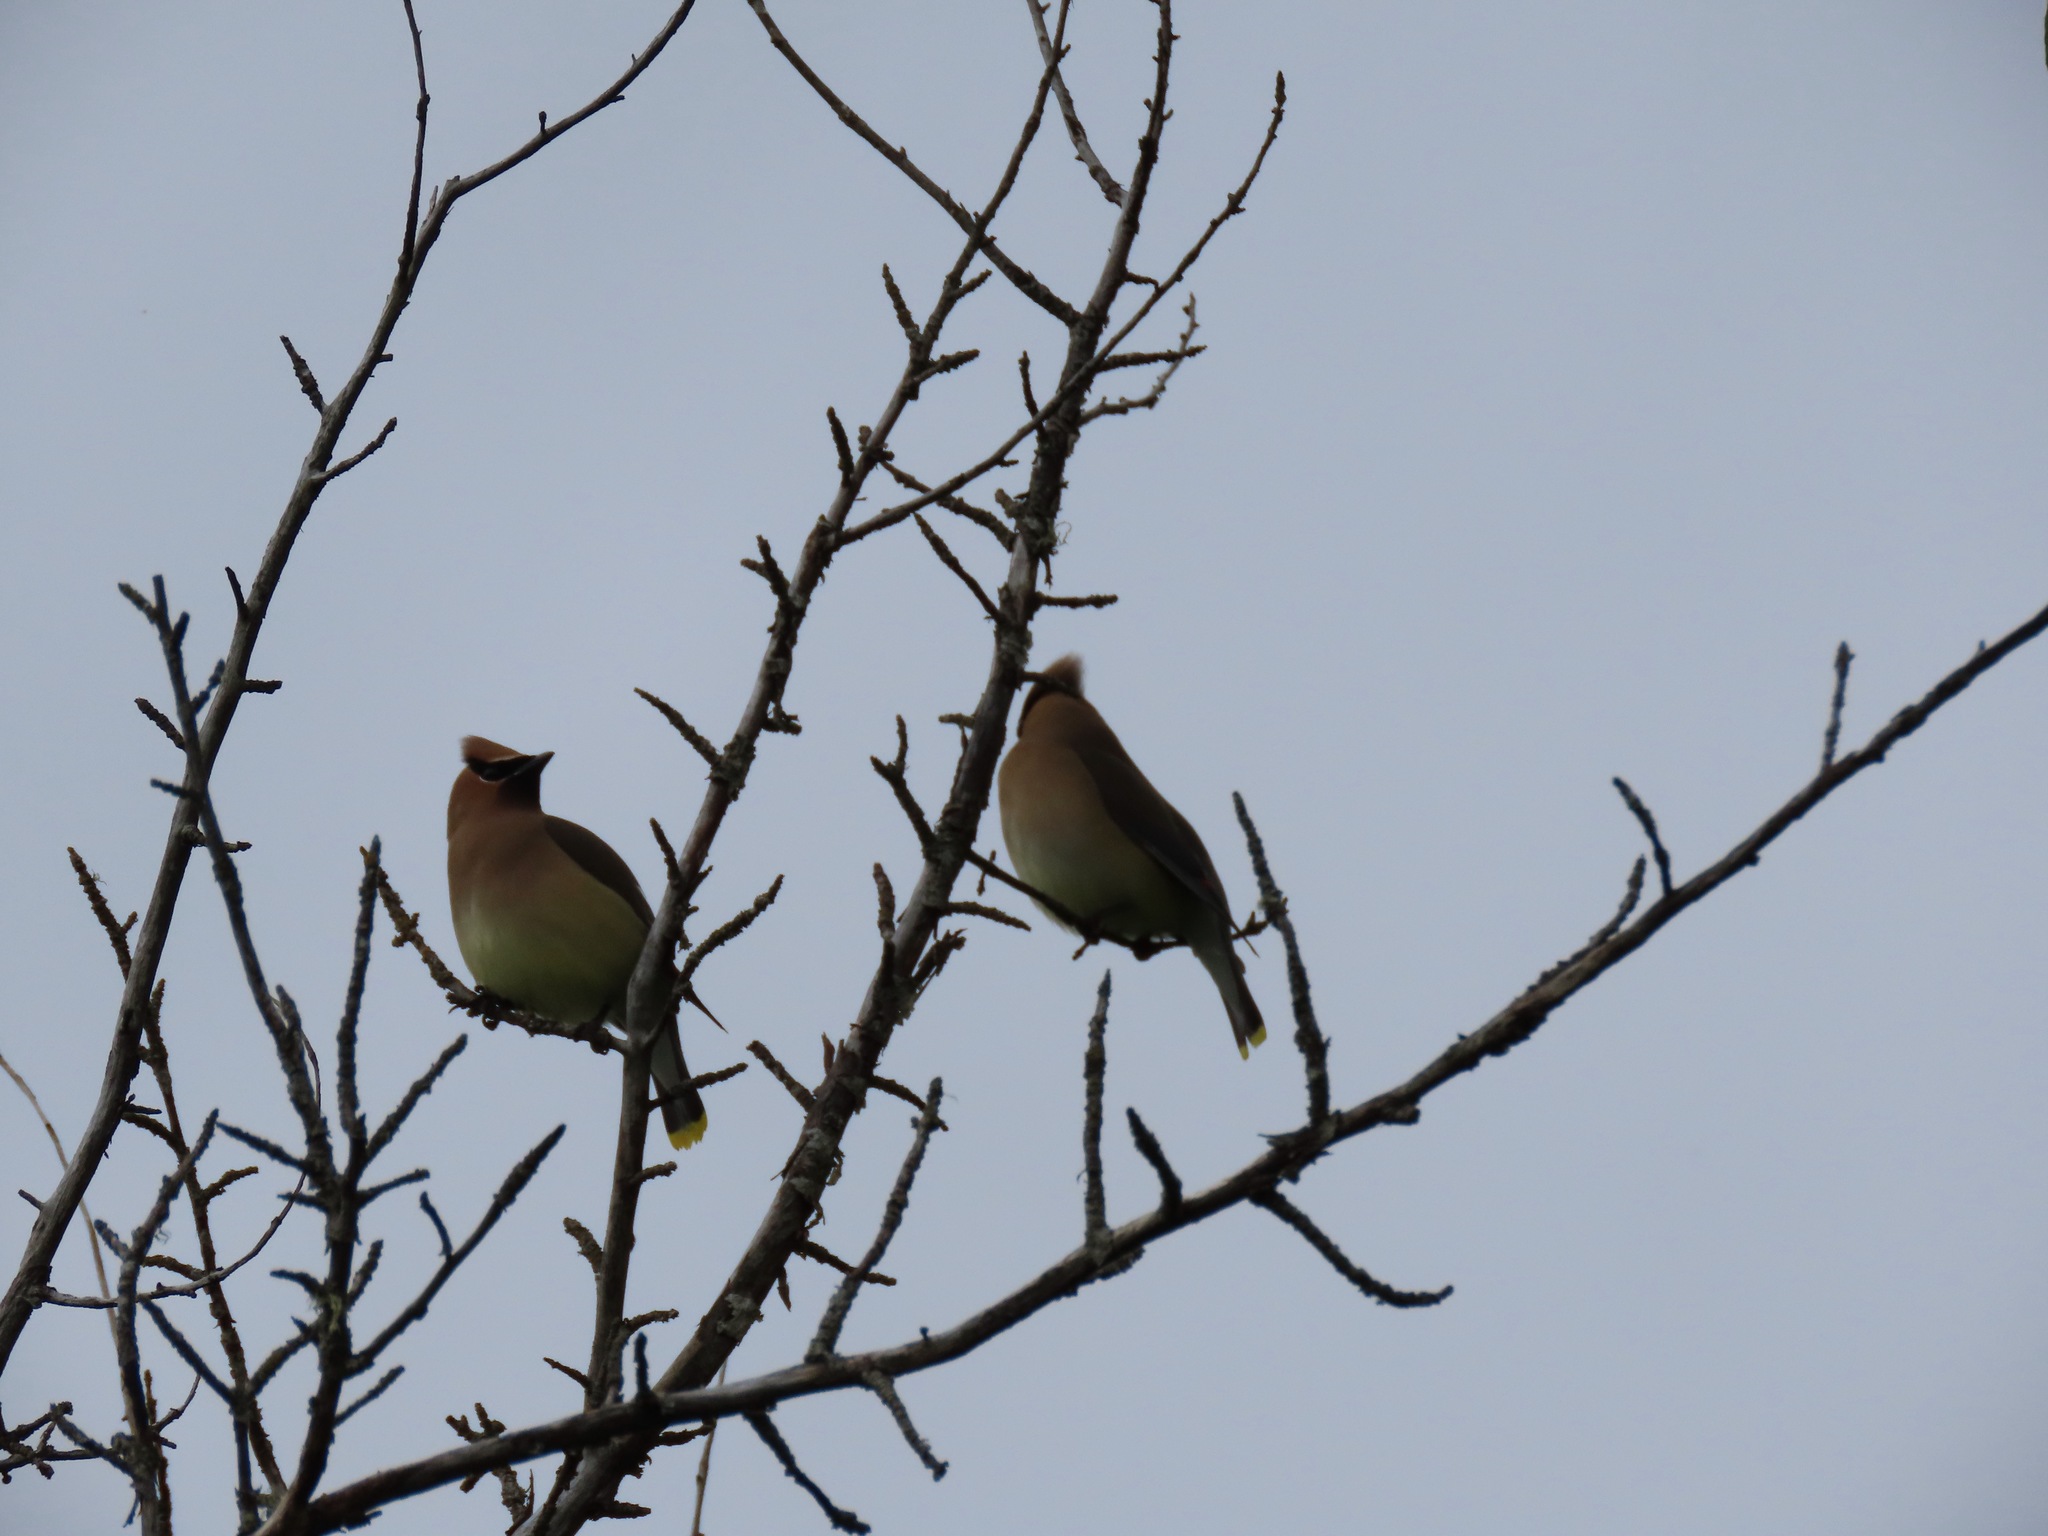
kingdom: Animalia
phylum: Chordata
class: Aves
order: Passeriformes
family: Bombycillidae
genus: Bombycilla
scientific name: Bombycilla cedrorum
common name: Cedar waxwing
